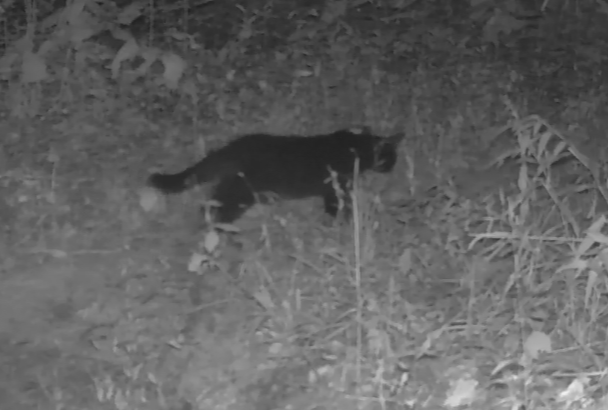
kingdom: Animalia
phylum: Chordata
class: Mammalia
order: Carnivora
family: Felidae
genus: Felis
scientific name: Felis catus
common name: Domestic cat
